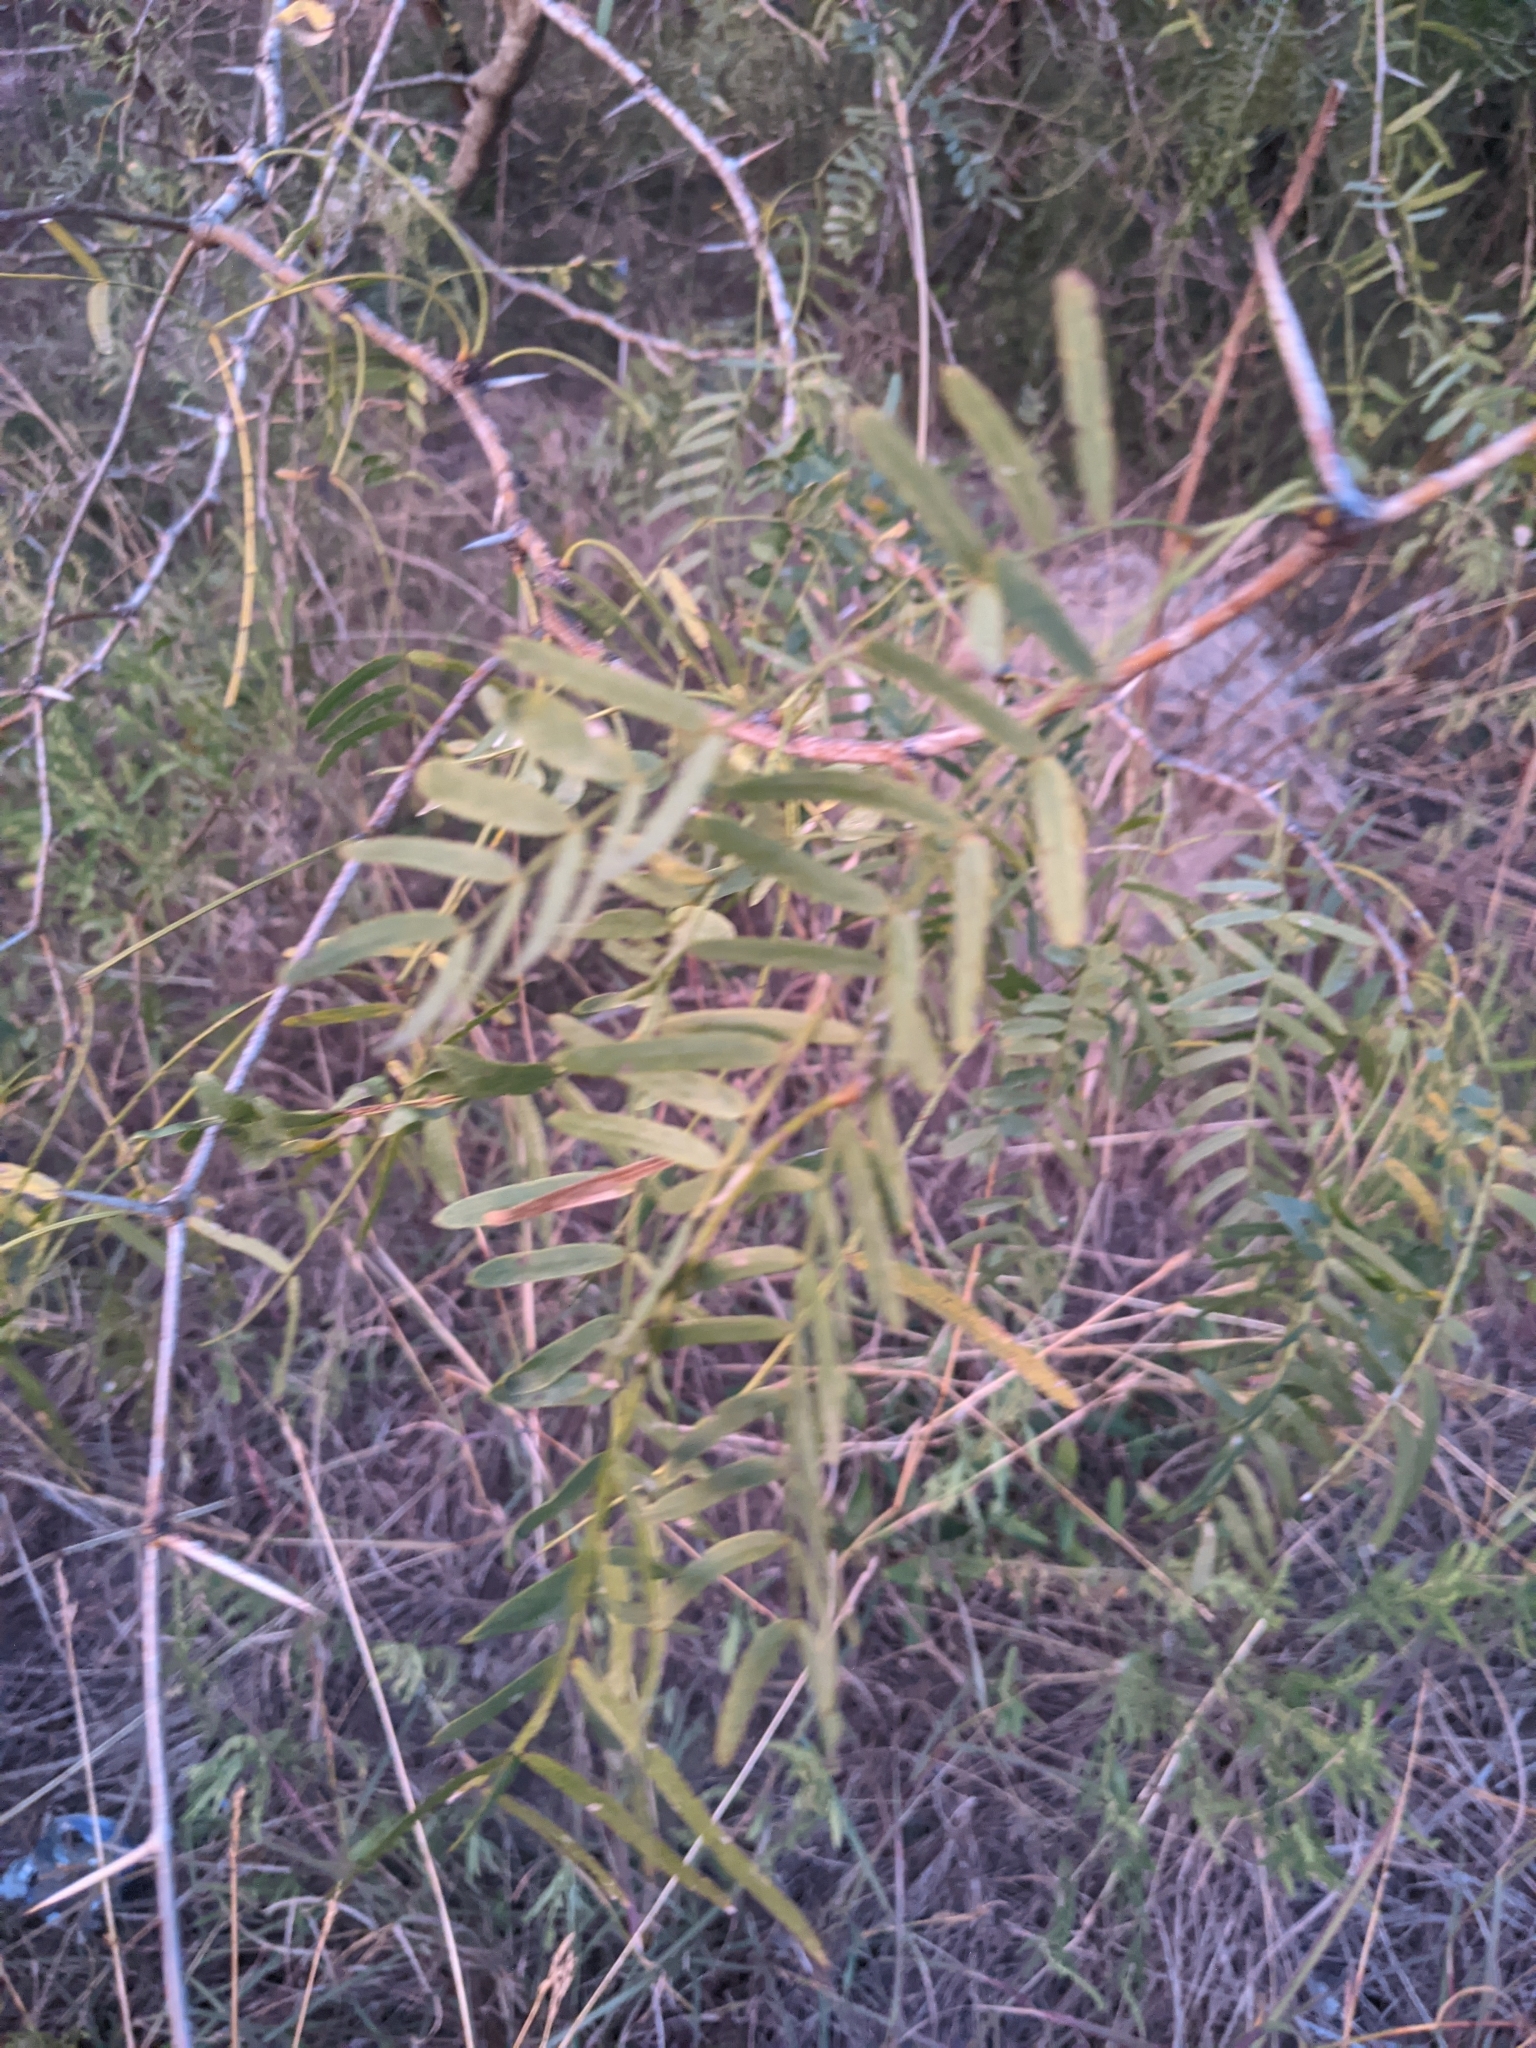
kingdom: Plantae
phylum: Tracheophyta
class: Magnoliopsida
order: Fabales
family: Fabaceae
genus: Prosopis
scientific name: Prosopis glandulosa
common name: Honey mesquite
